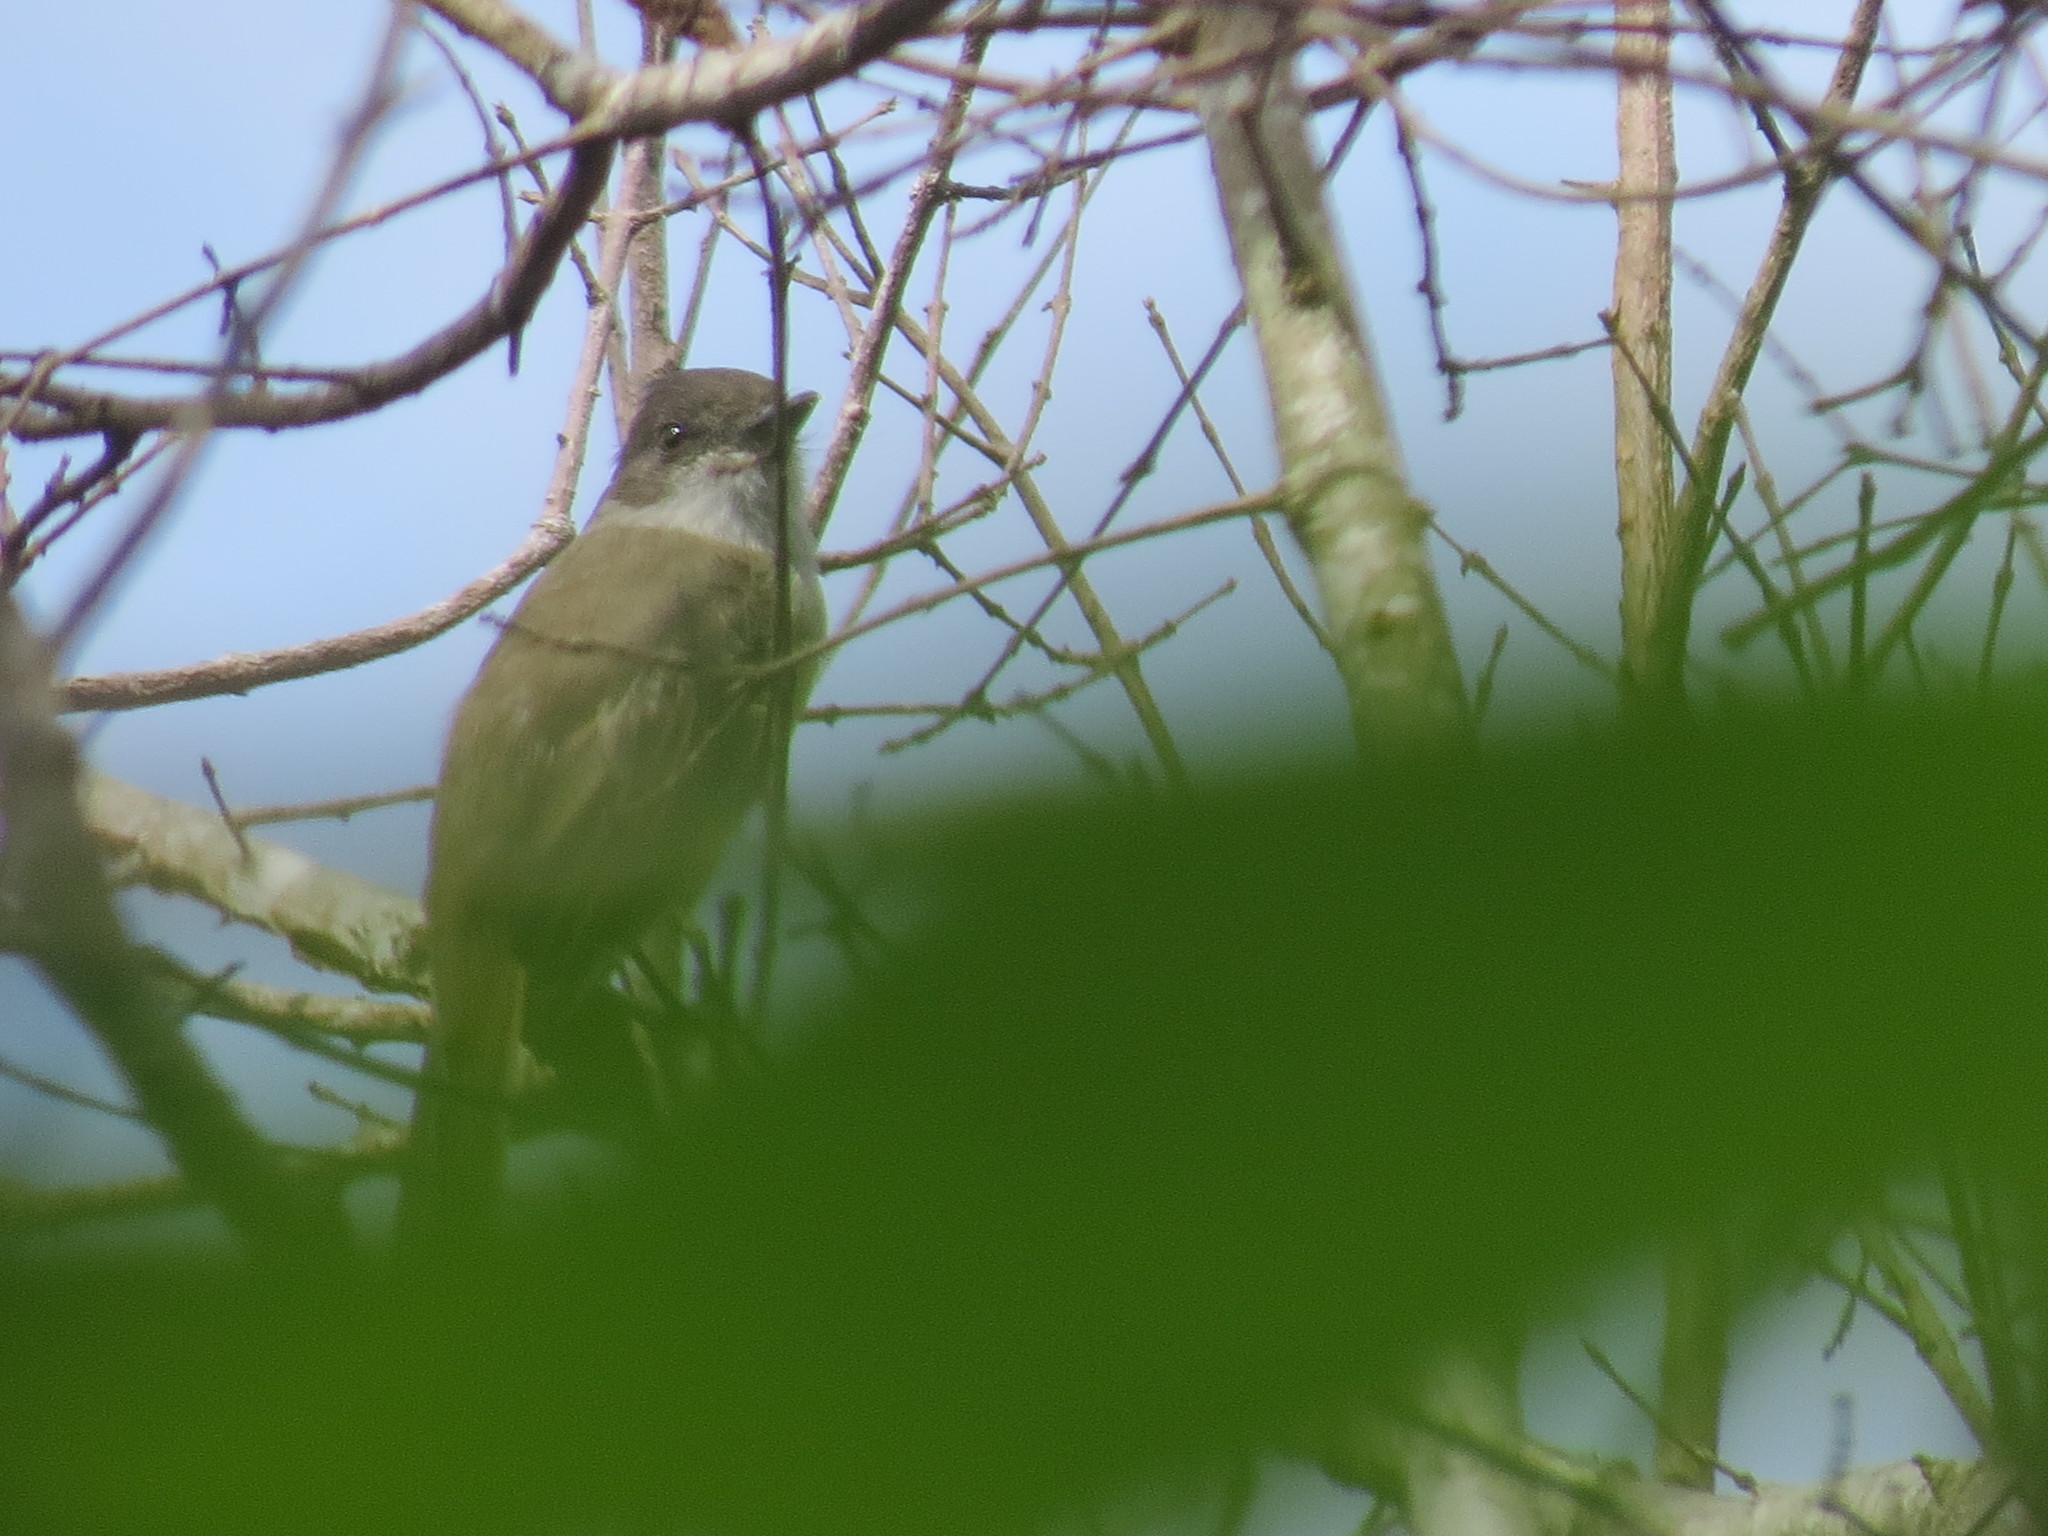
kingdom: Animalia
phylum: Chordata
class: Aves
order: Passeriformes
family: Tyrannidae
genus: Myiarchus
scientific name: Myiarchus tuberculifer
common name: Dusky-capped flycatcher
